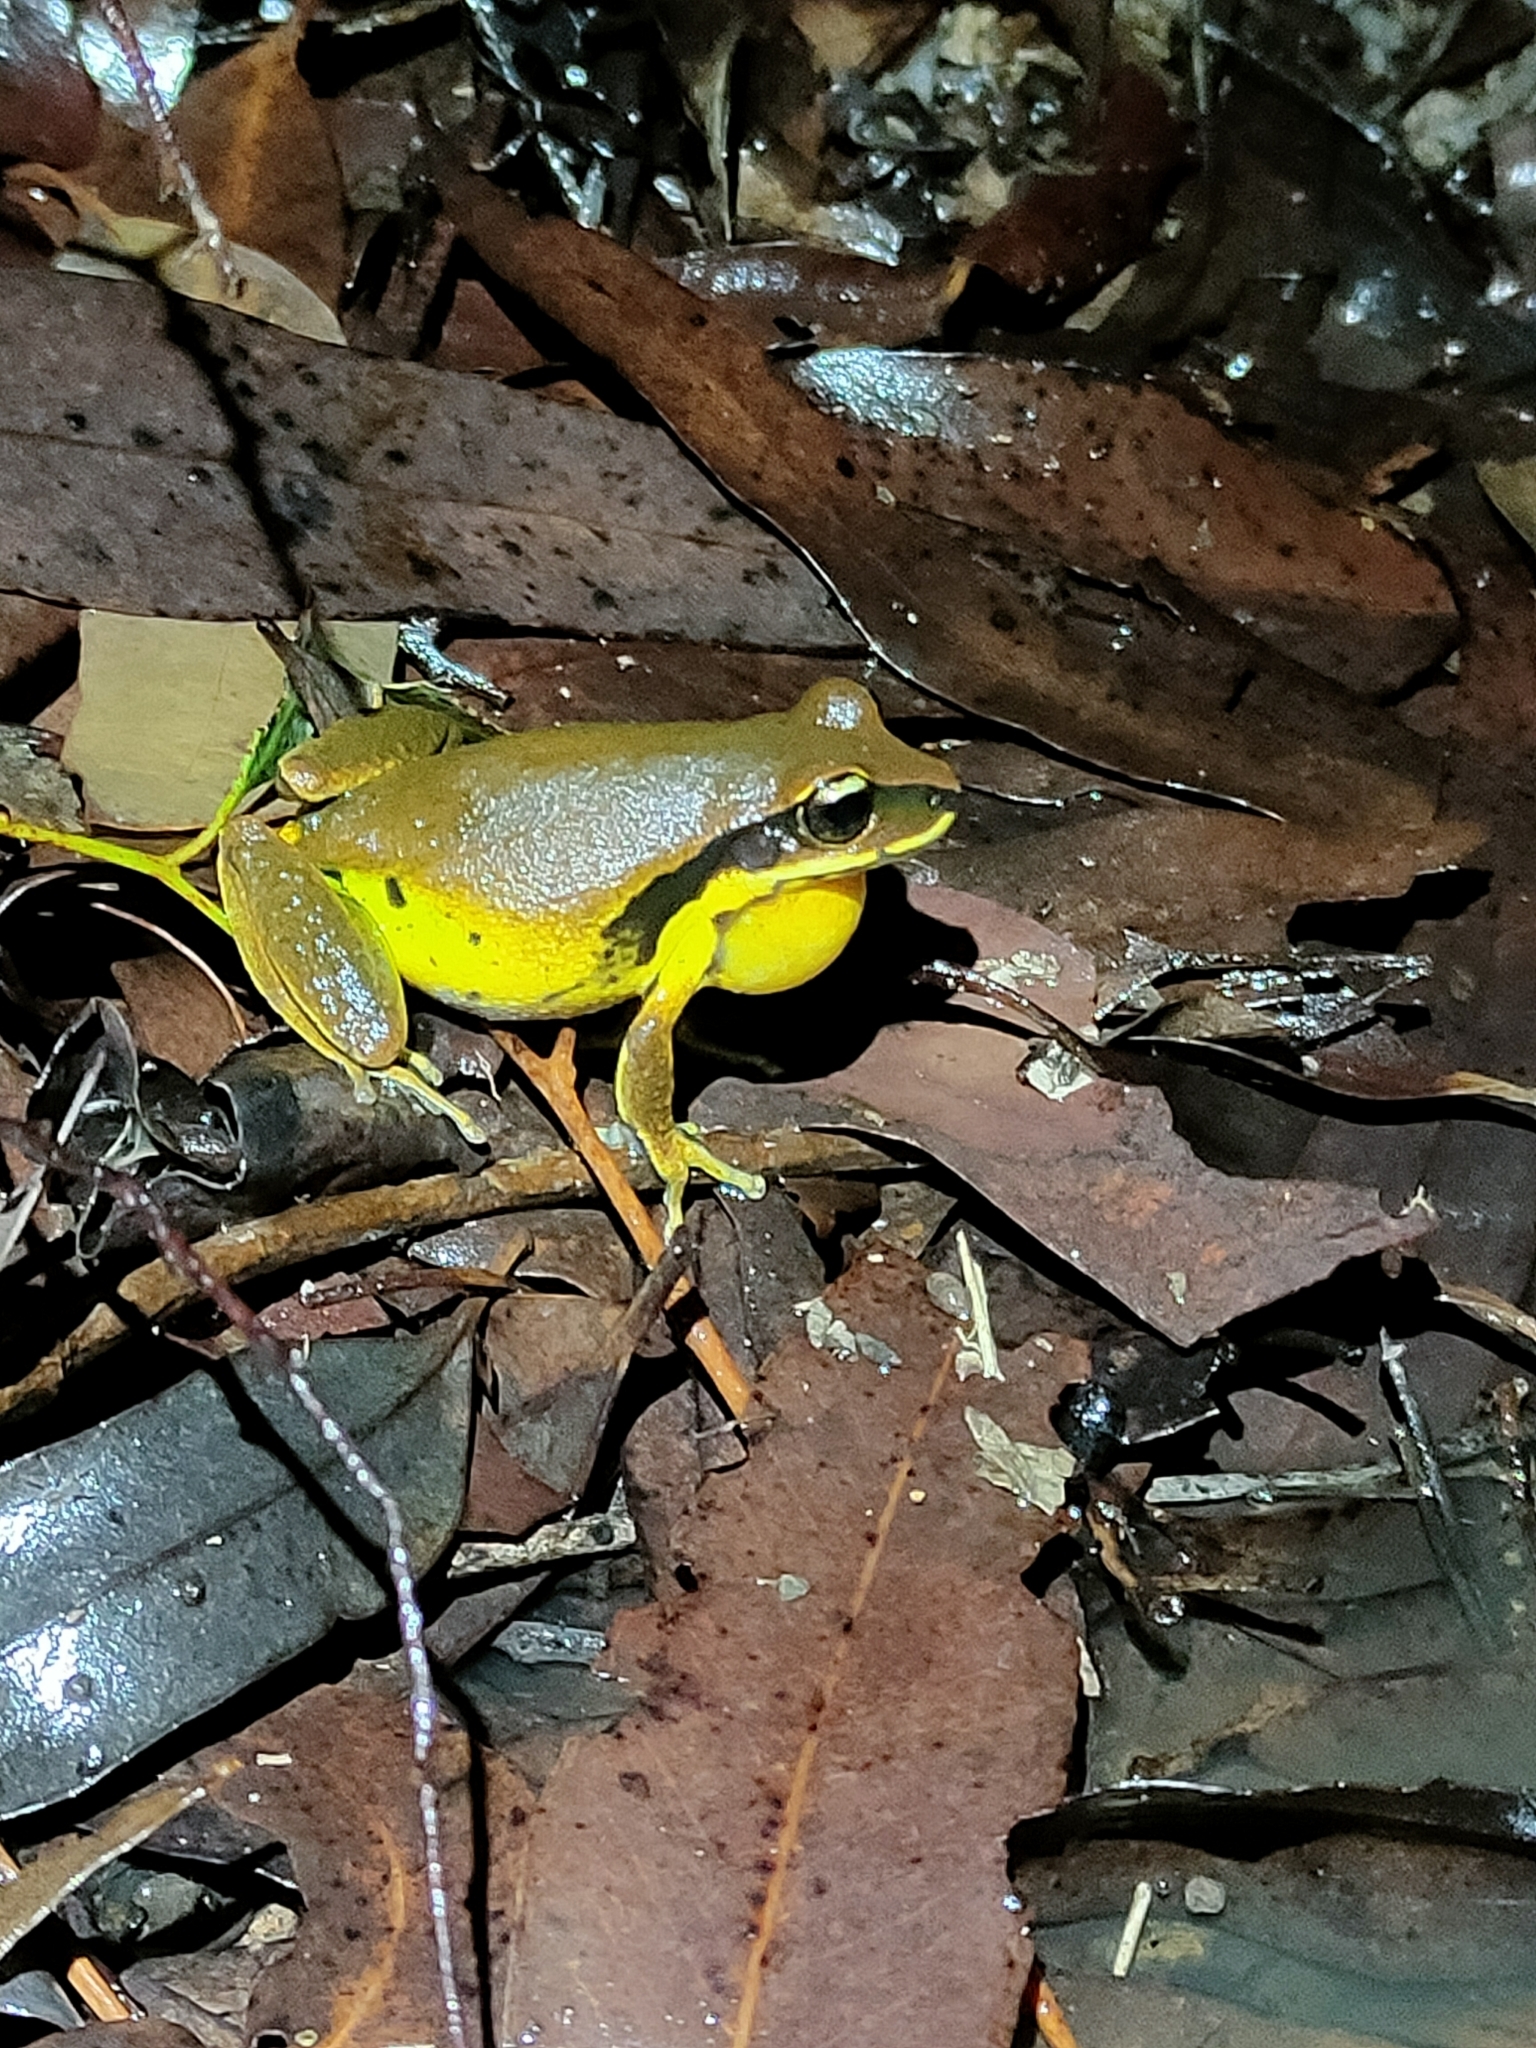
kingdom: Animalia
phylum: Chordata
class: Amphibia
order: Anura
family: Pelodryadidae
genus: Nyctimystes
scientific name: Nyctimystes brevipalmatus
